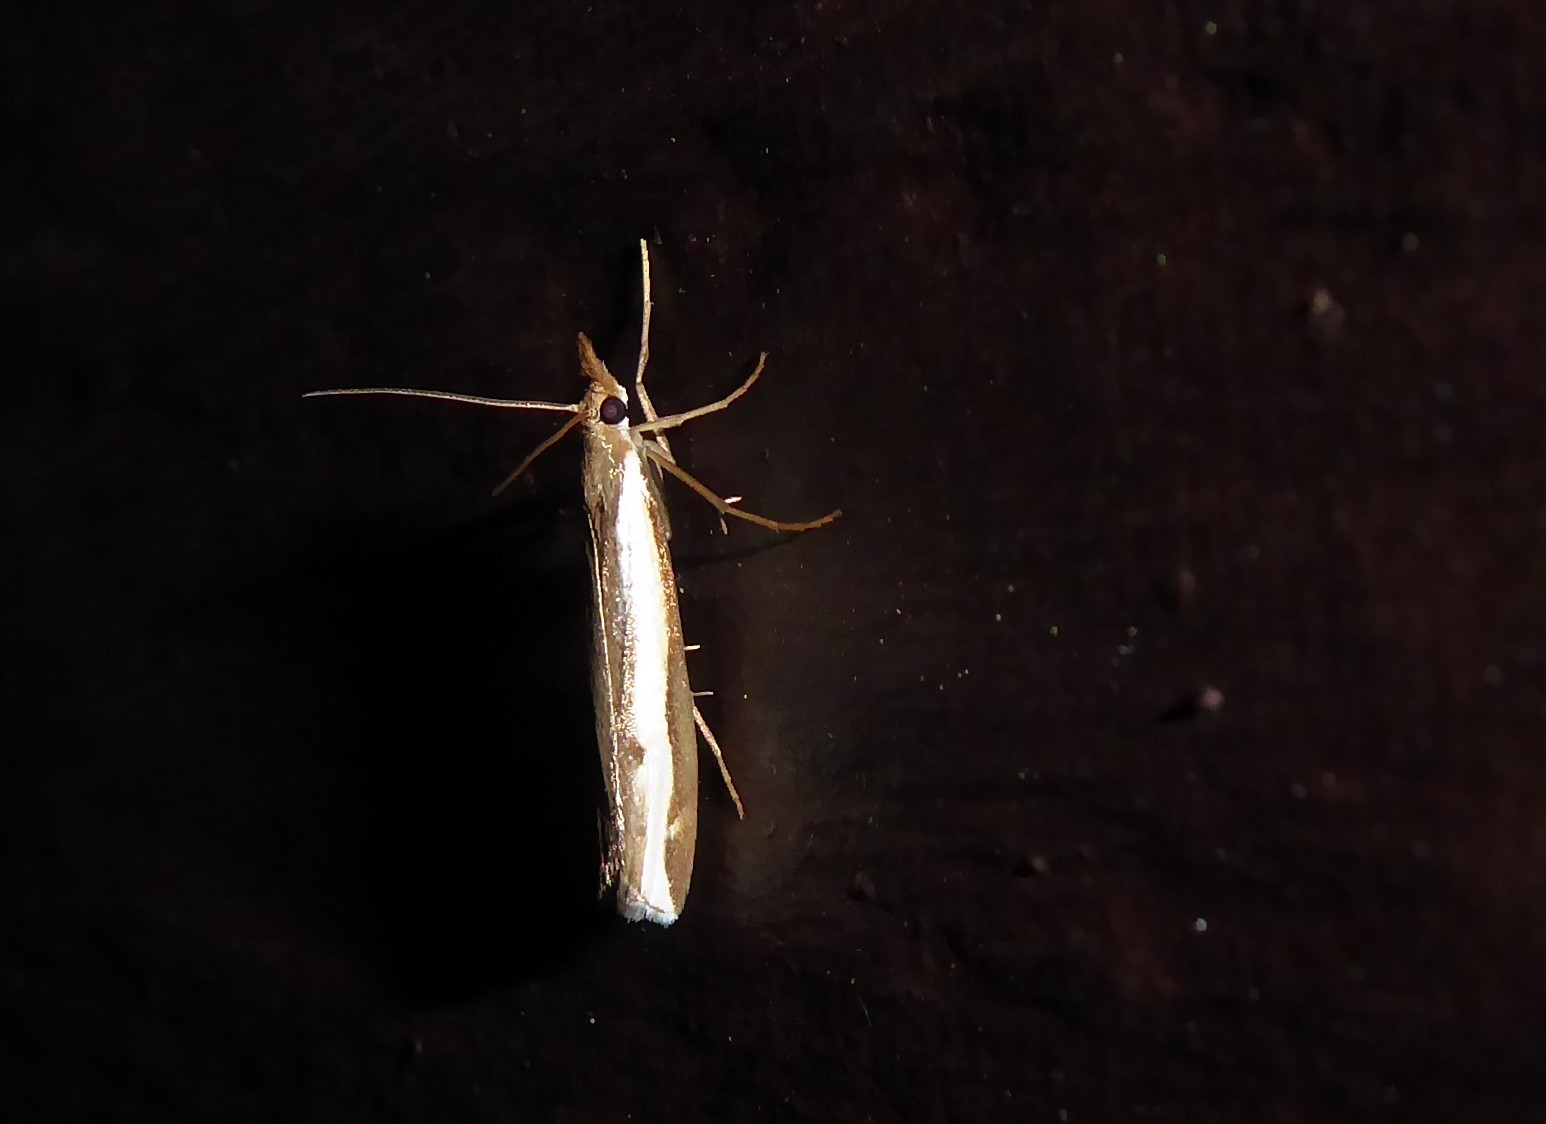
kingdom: Animalia
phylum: Arthropoda
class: Insecta
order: Lepidoptera
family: Crambidae
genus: Orocrambus
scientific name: Orocrambus flexuosellus
